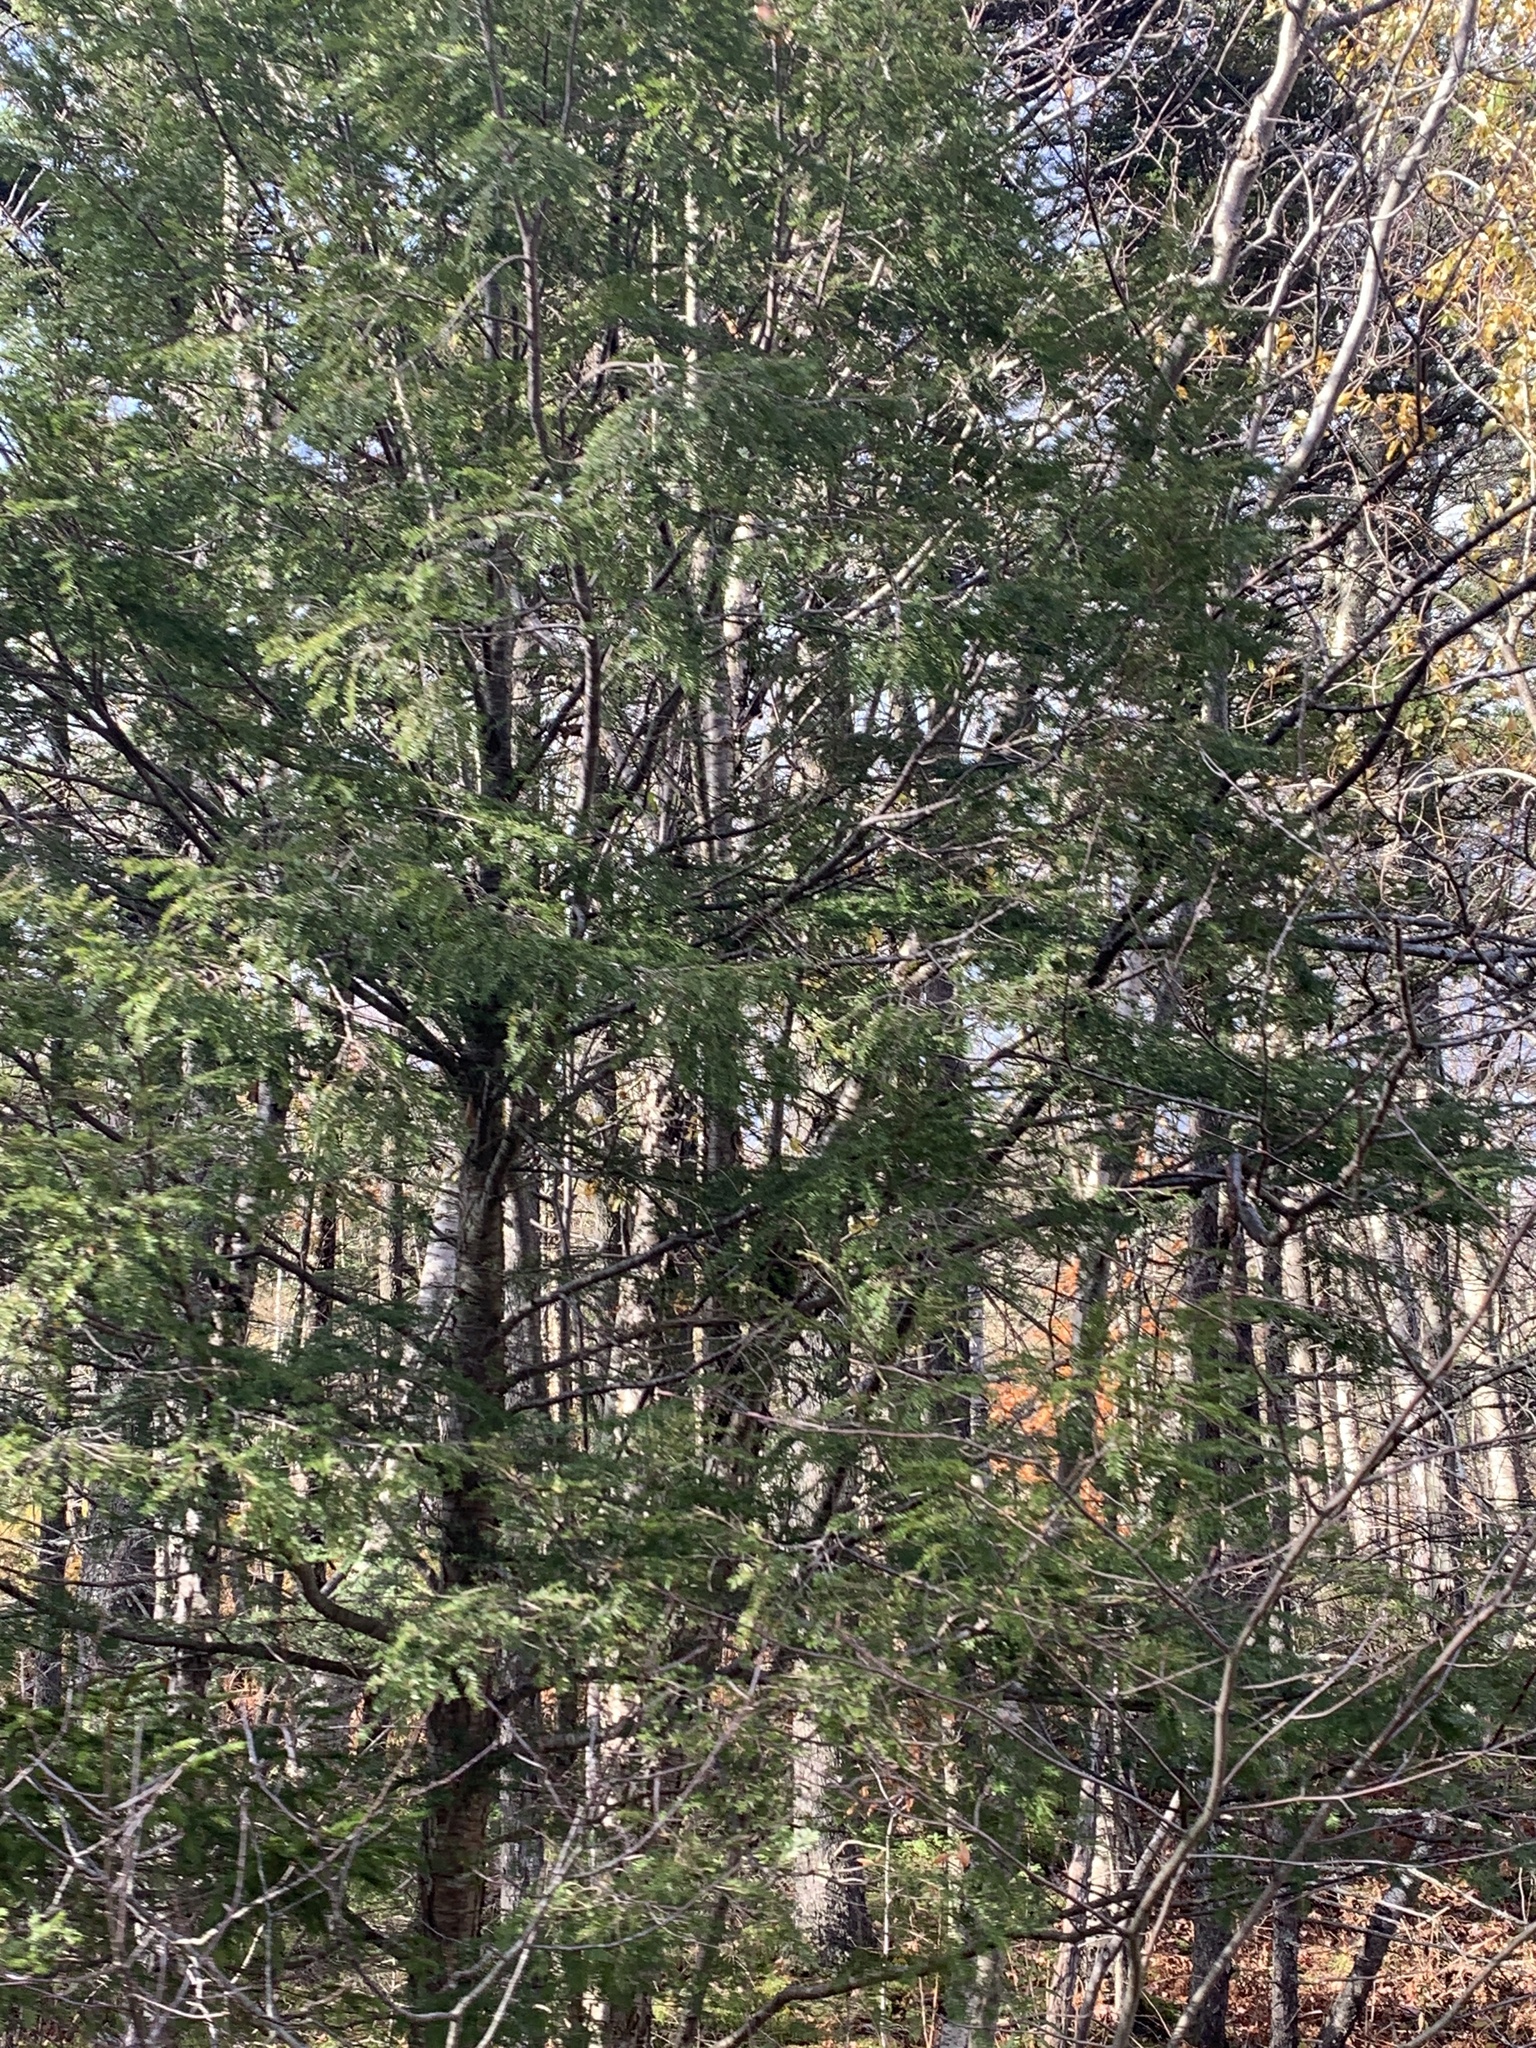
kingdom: Plantae
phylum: Tracheophyta
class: Pinopsida
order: Pinales
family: Pinaceae
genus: Tsuga
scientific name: Tsuga canadensis
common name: Eastern hemlock
